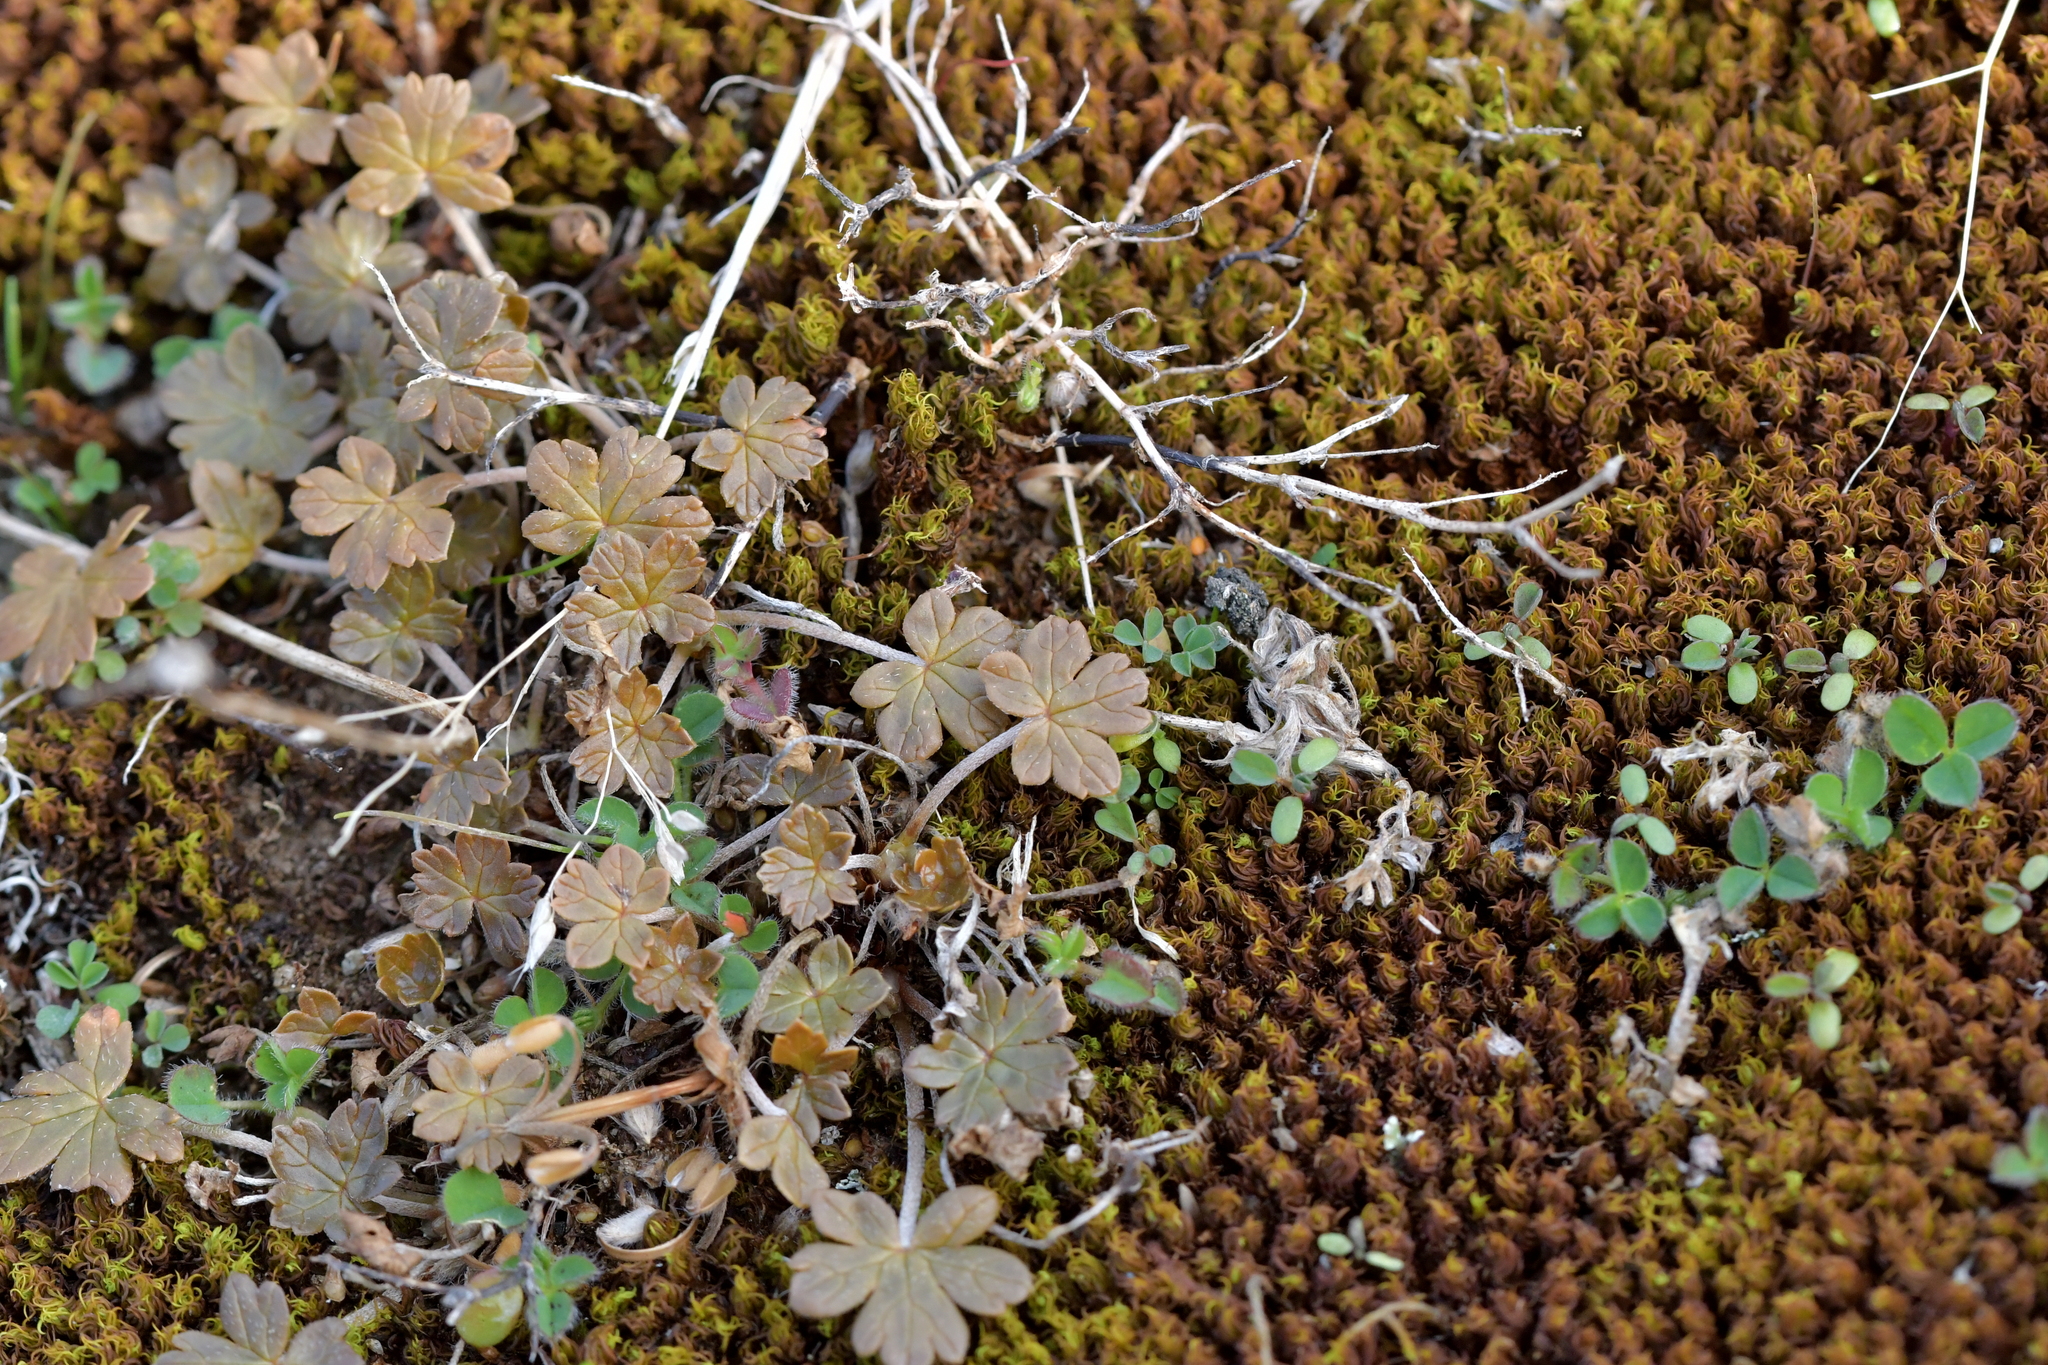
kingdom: Plantae
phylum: Tracheophyta
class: Magnoliopsida
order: Geraniales
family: Geraniaceae
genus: Geranium
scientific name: Geranium brevicaule
